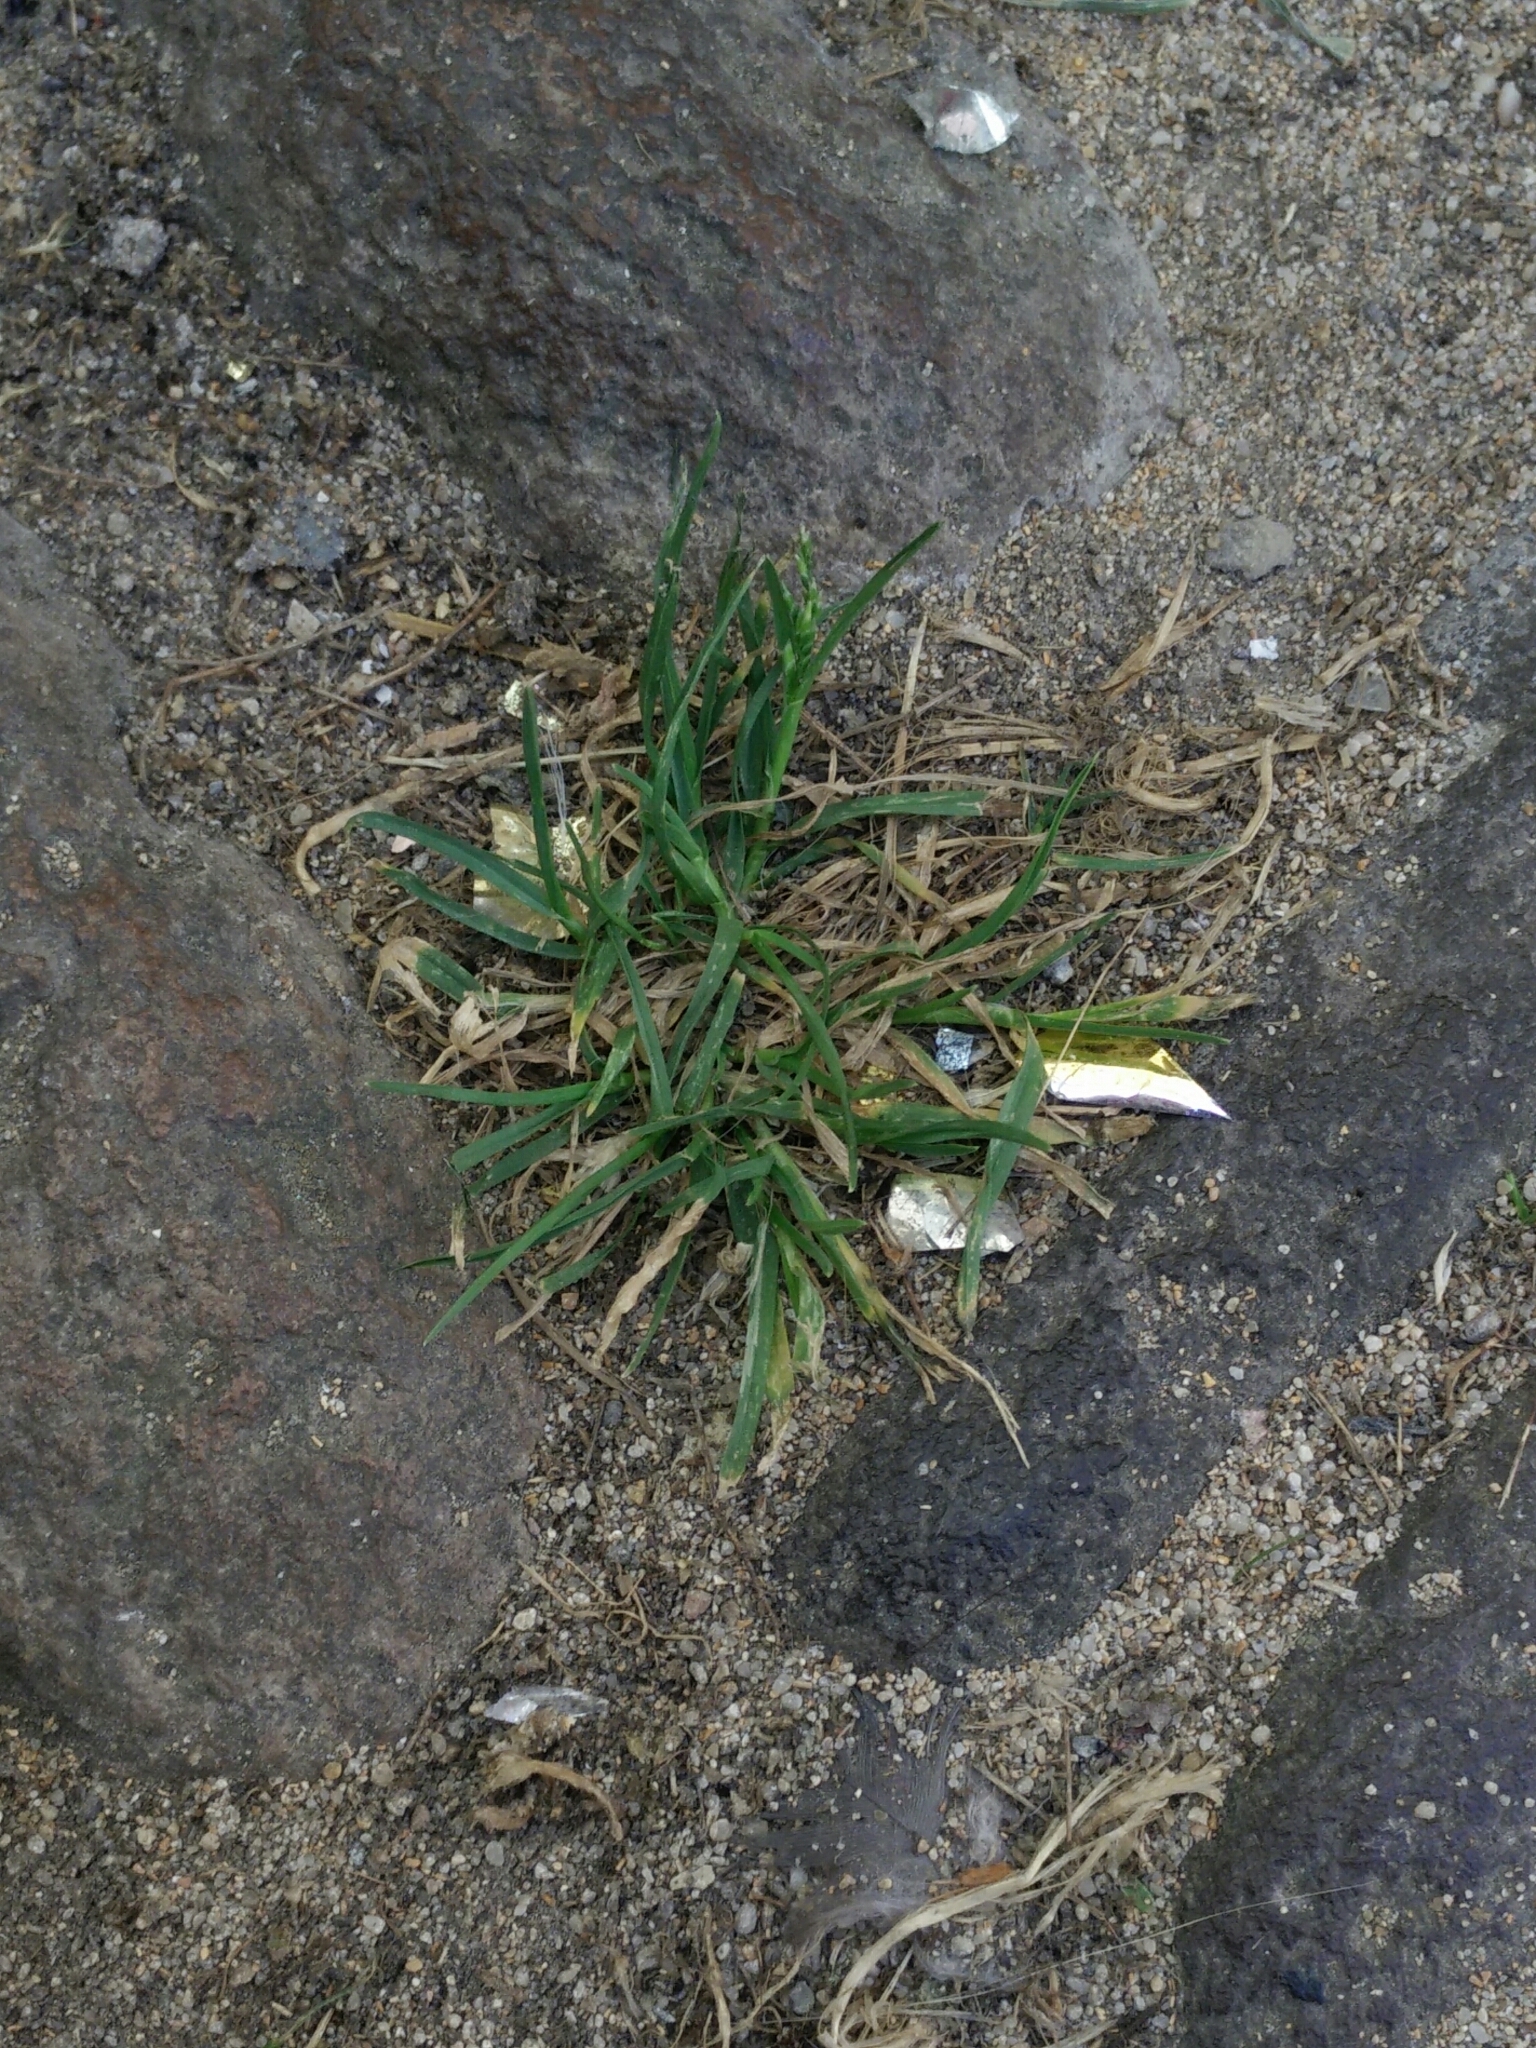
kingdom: Plantae
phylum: Tracheophyta
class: Liliopsida
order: Poales
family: Poaceae
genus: Poa
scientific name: Poa annua
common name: Annual bluegrass
